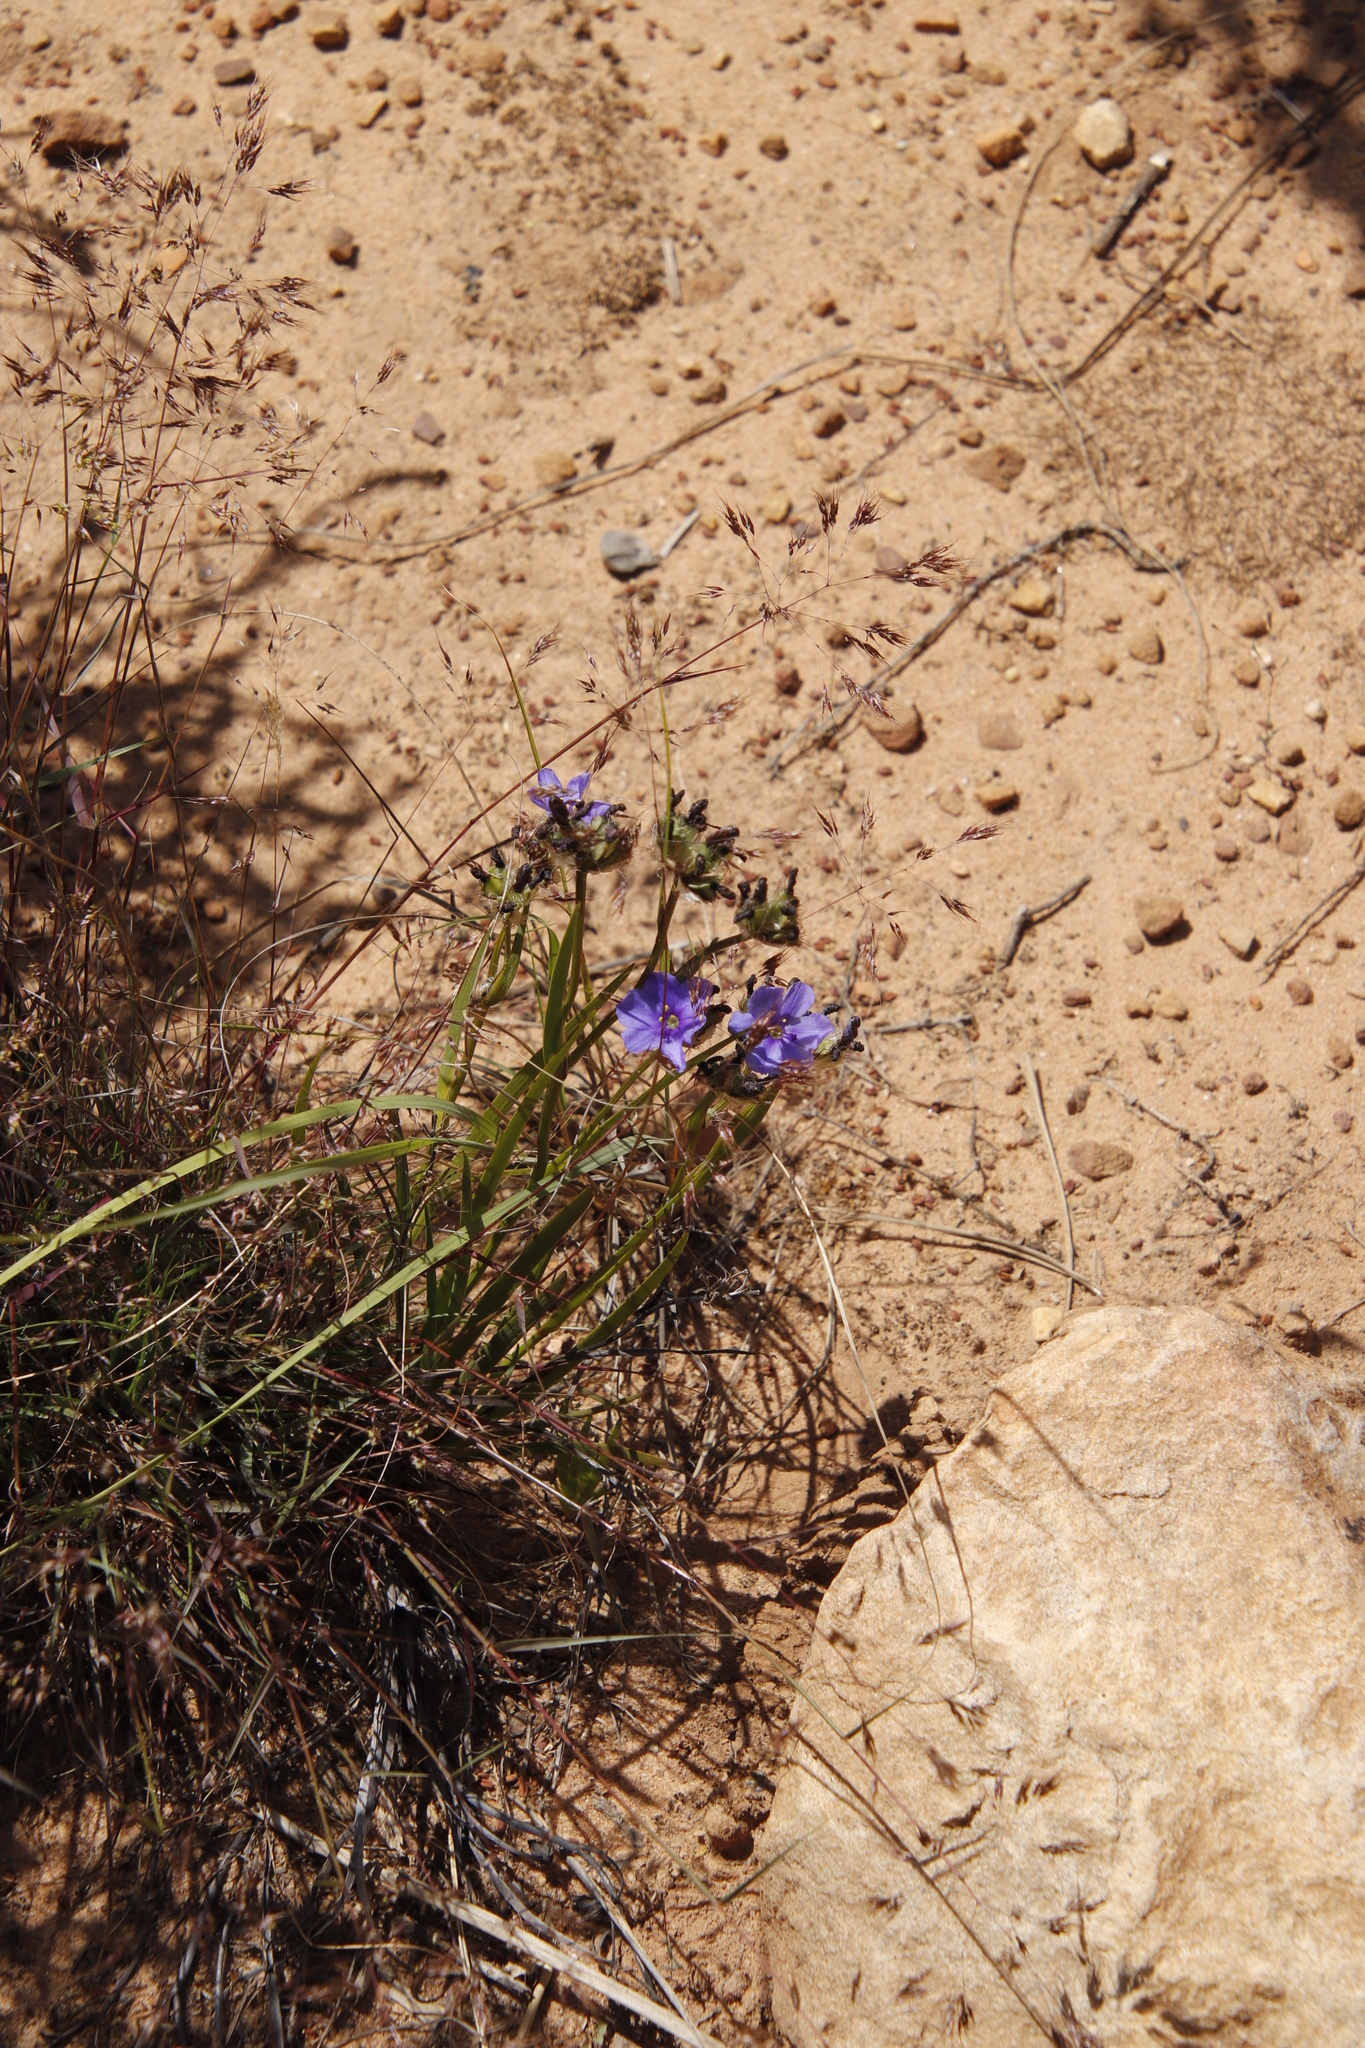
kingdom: Plantae
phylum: Tracheophyta
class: Liliopsida
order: Asparagales
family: Iridaceae
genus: Aristea
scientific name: Aristea africana
